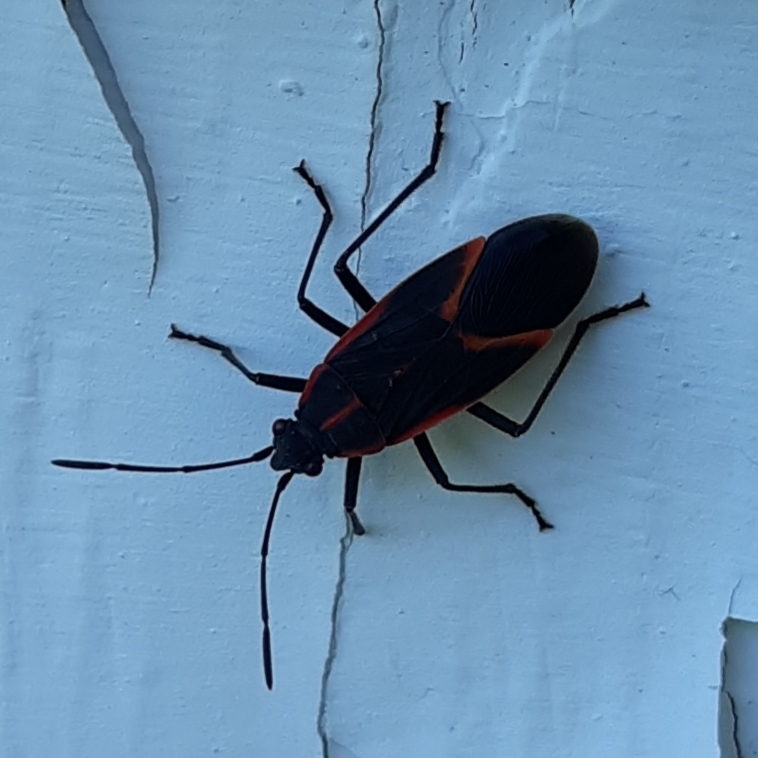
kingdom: Animalia
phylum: Arthropoda
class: Insecta
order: Hemiptera
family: Rhopalidae
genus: Boisea
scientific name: Boisea trivittata
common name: Boxelder bug
